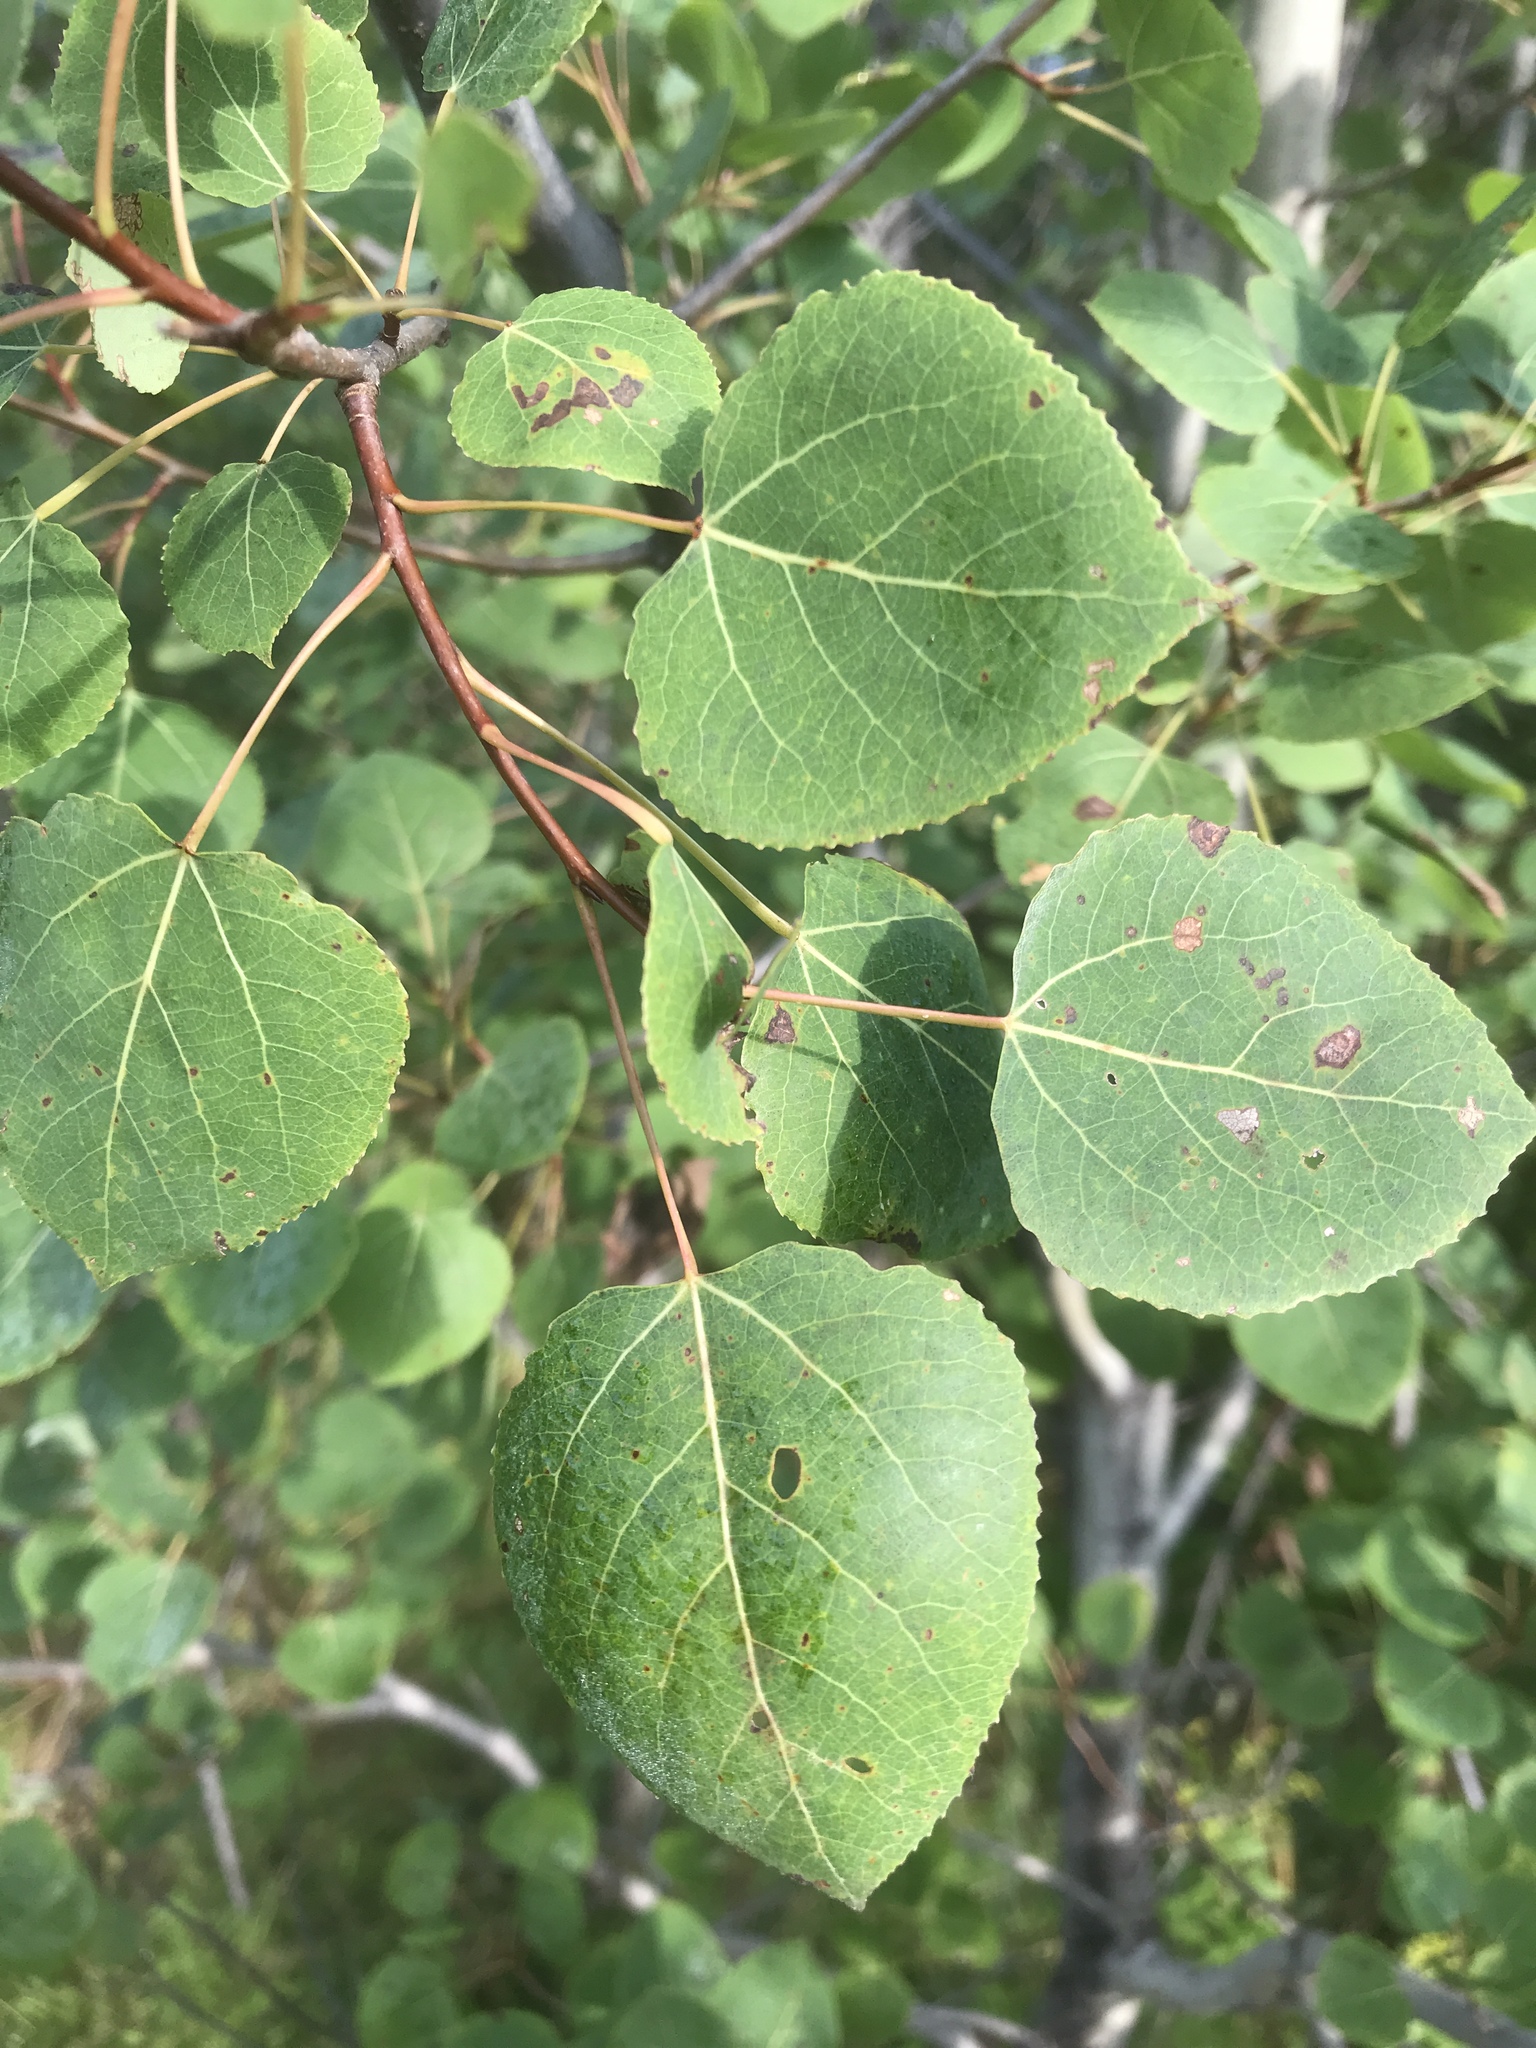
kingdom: Plantae
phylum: Tracheophyta
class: Magnoliopsida
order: Malpighiales
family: Salicaceae
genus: Populus
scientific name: Populus tremuloides
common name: Quaking aspen
